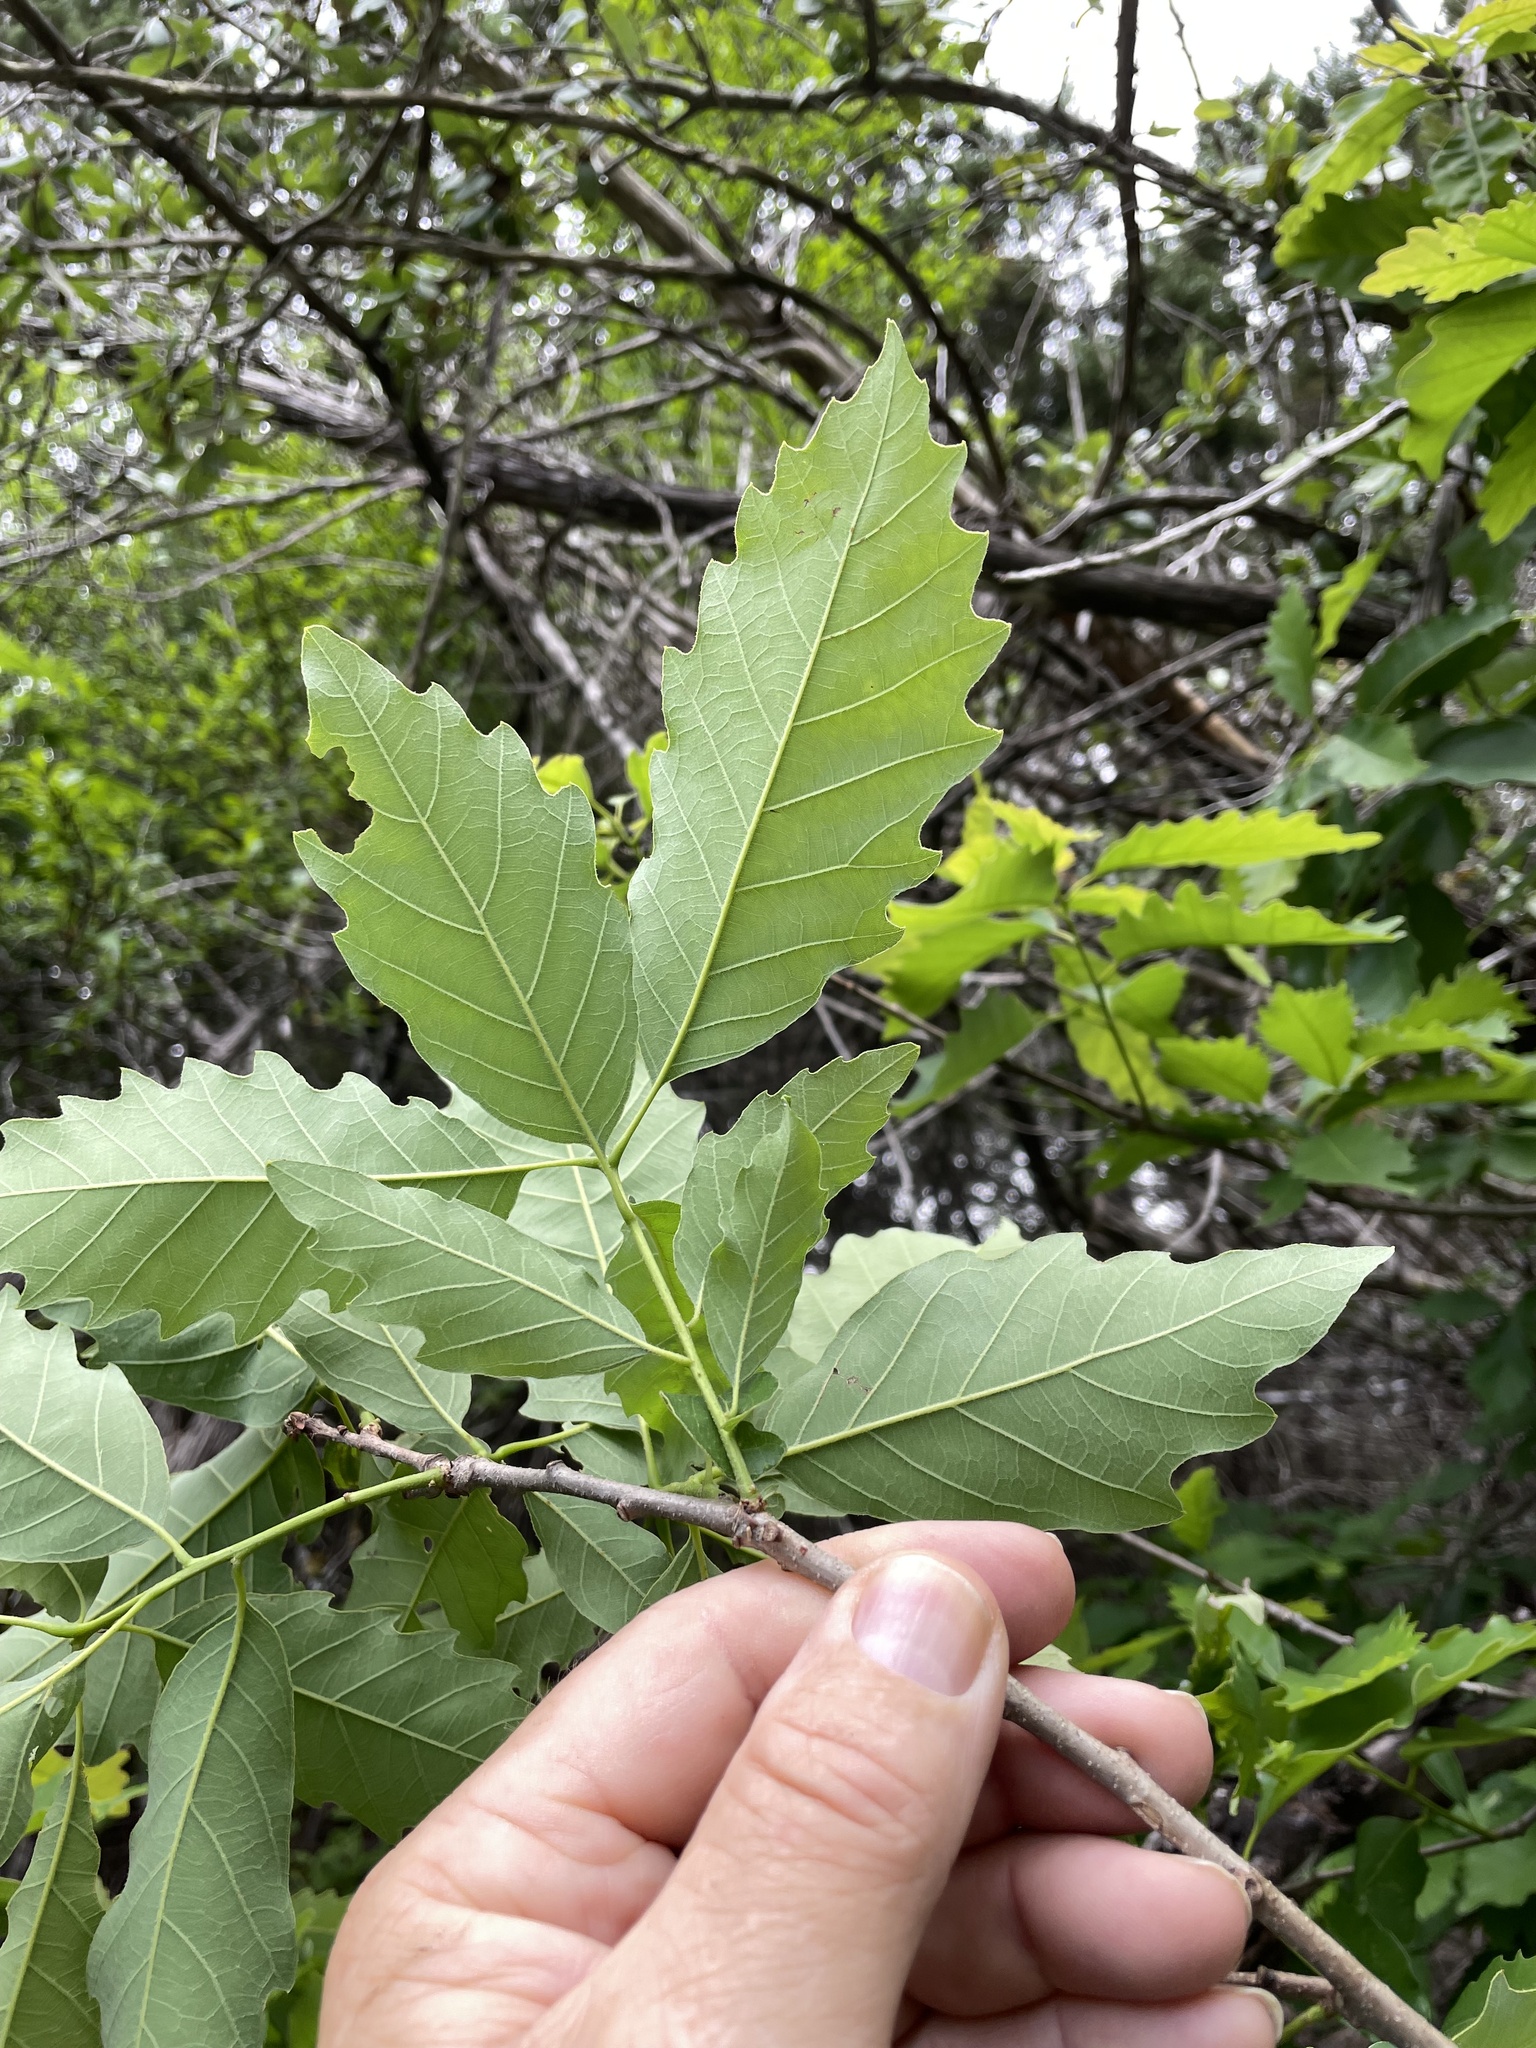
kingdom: Plantae
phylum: Tracheophyta
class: Magnoliopsida
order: Fagales
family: Fagaceae
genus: Quercus
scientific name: Quercus muehlenbergii
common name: Chinkapin oak
